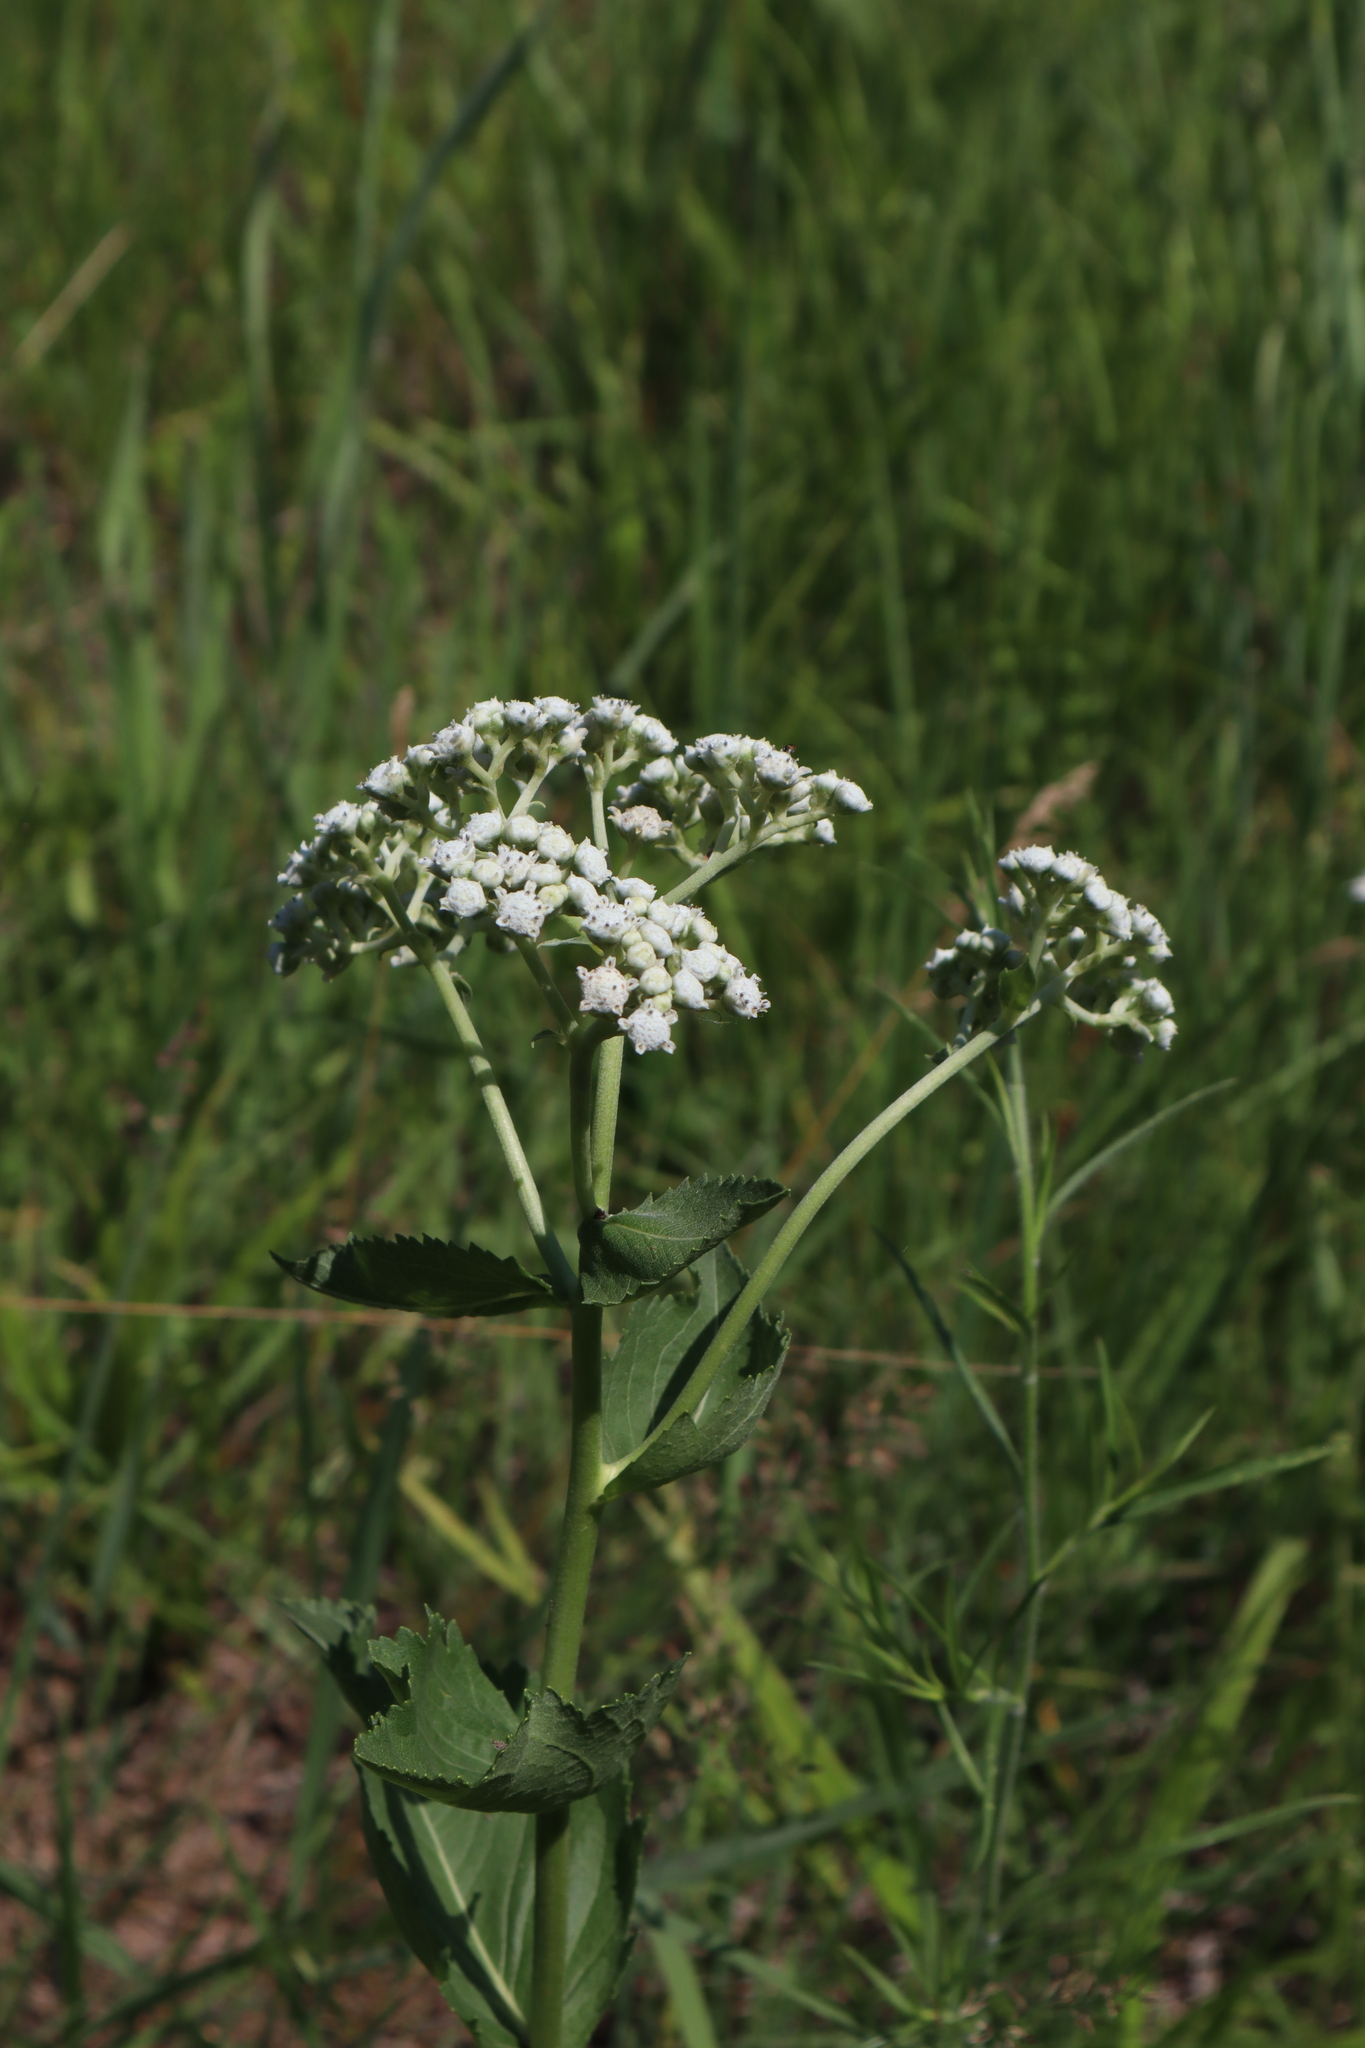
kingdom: Plantae
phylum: Tracheophyta
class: Magnoliopsida
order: Asterales
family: Asteraceae
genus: Parthenium
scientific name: Parthenium integrifolium
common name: American feverfew
